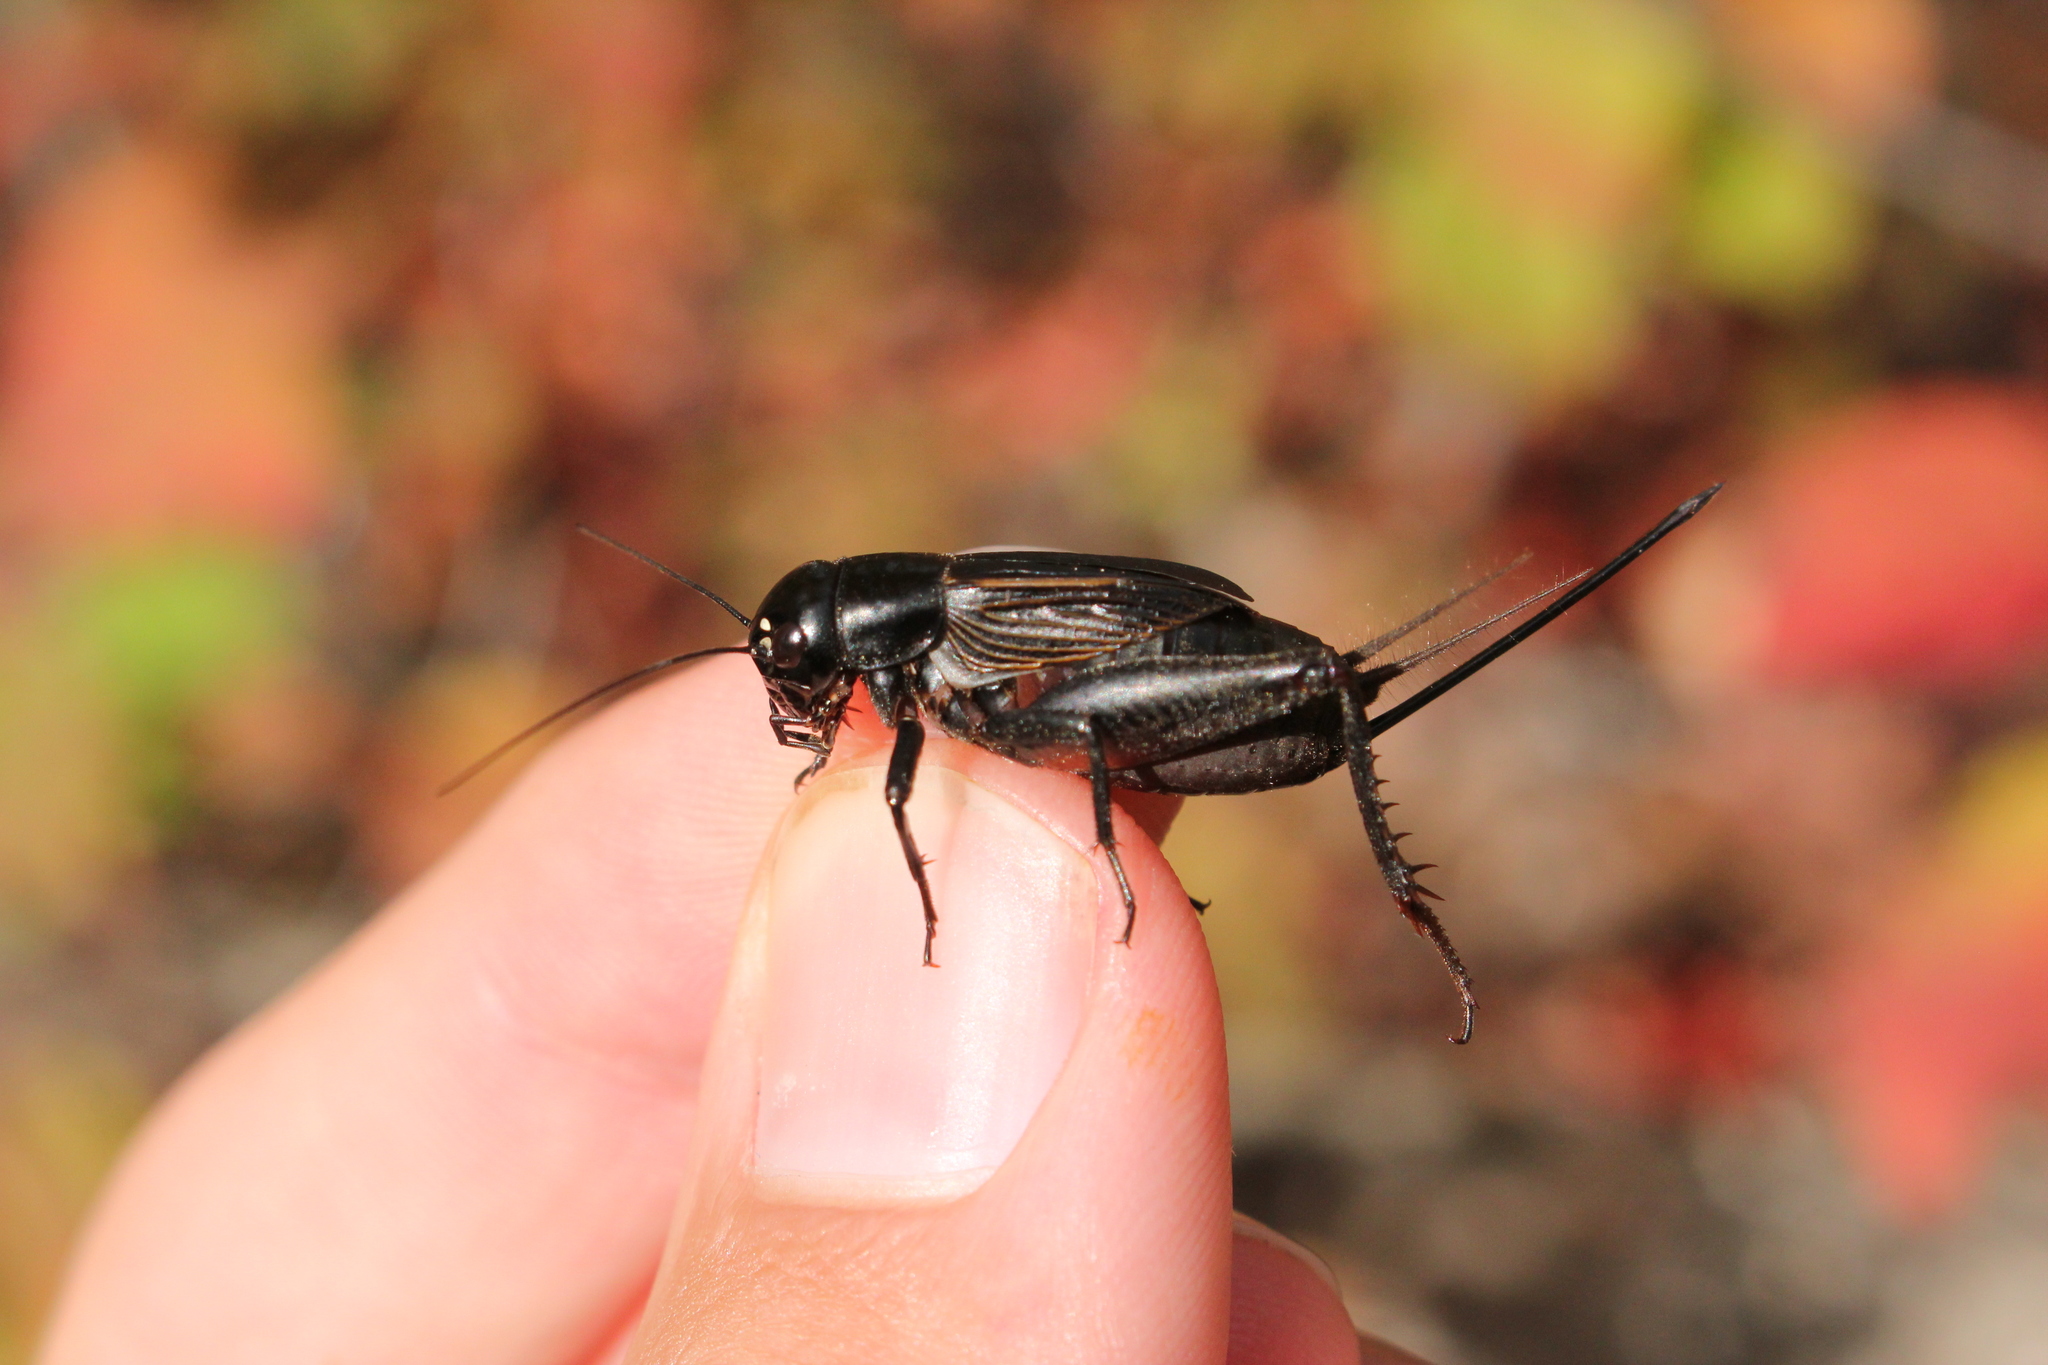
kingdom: Animalia
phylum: Arthropoda
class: Insecta
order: Orthoptera
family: Gryllidae
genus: Gryllus
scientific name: Gryllus pennsylvanicus
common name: Fall field cricket
